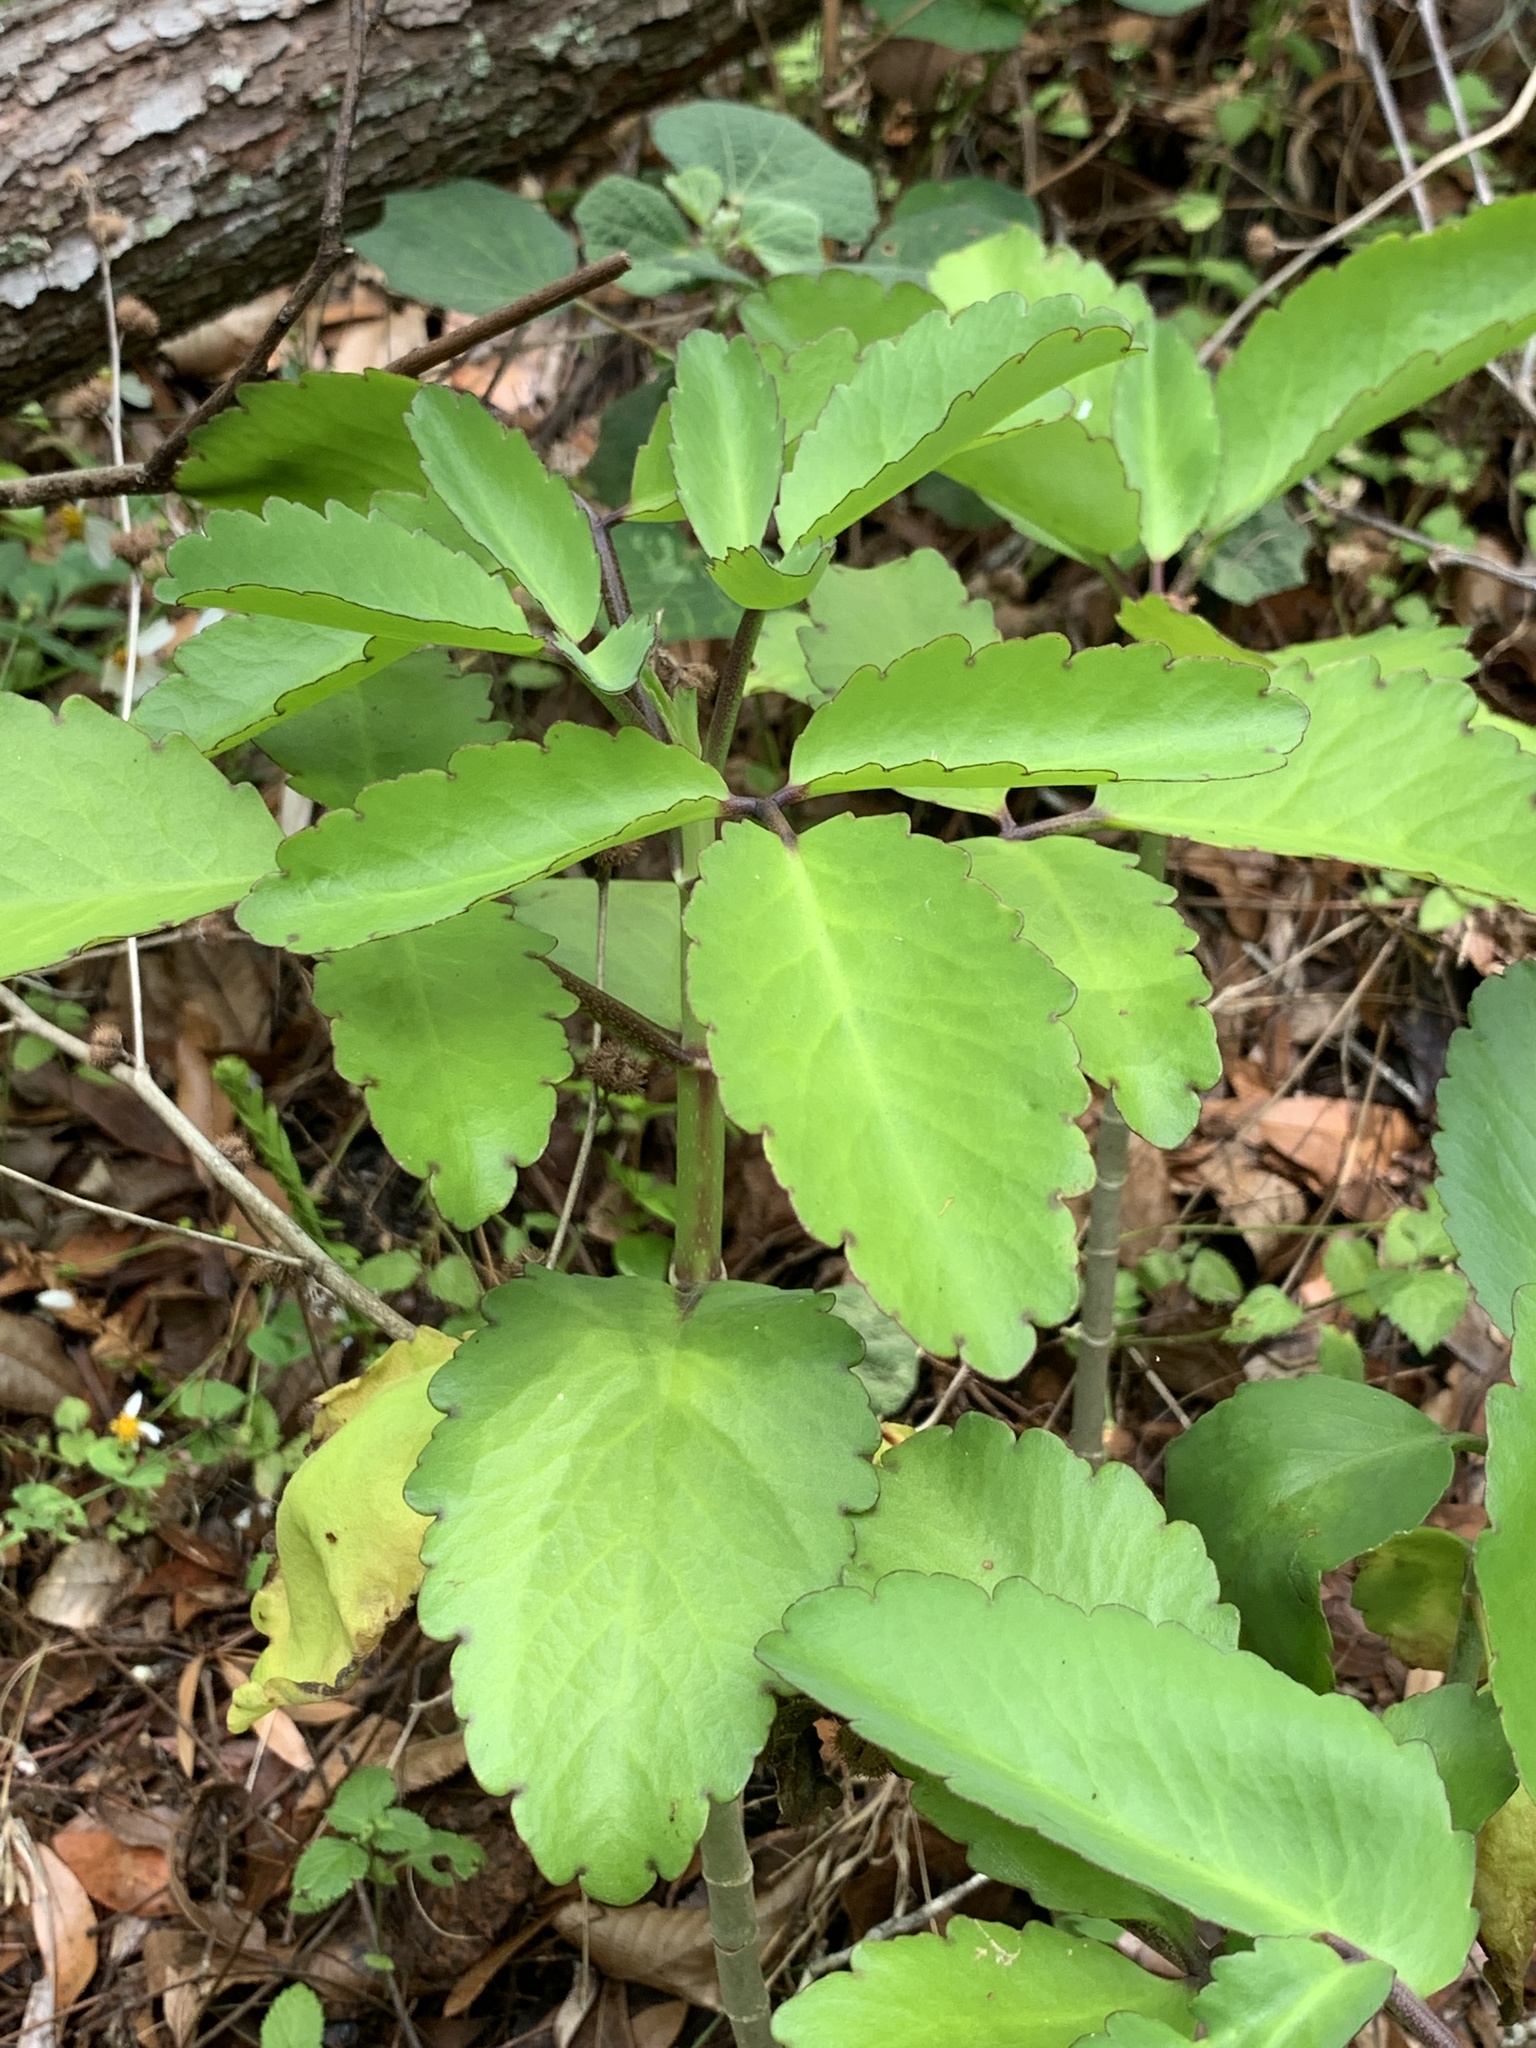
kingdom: Plantae
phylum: Tracheophyta
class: Magnoliopsida
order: Saxifragales
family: Crassulaceae
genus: Kalanchoe
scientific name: Kalanchoe pinnata
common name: Cathedral bells
